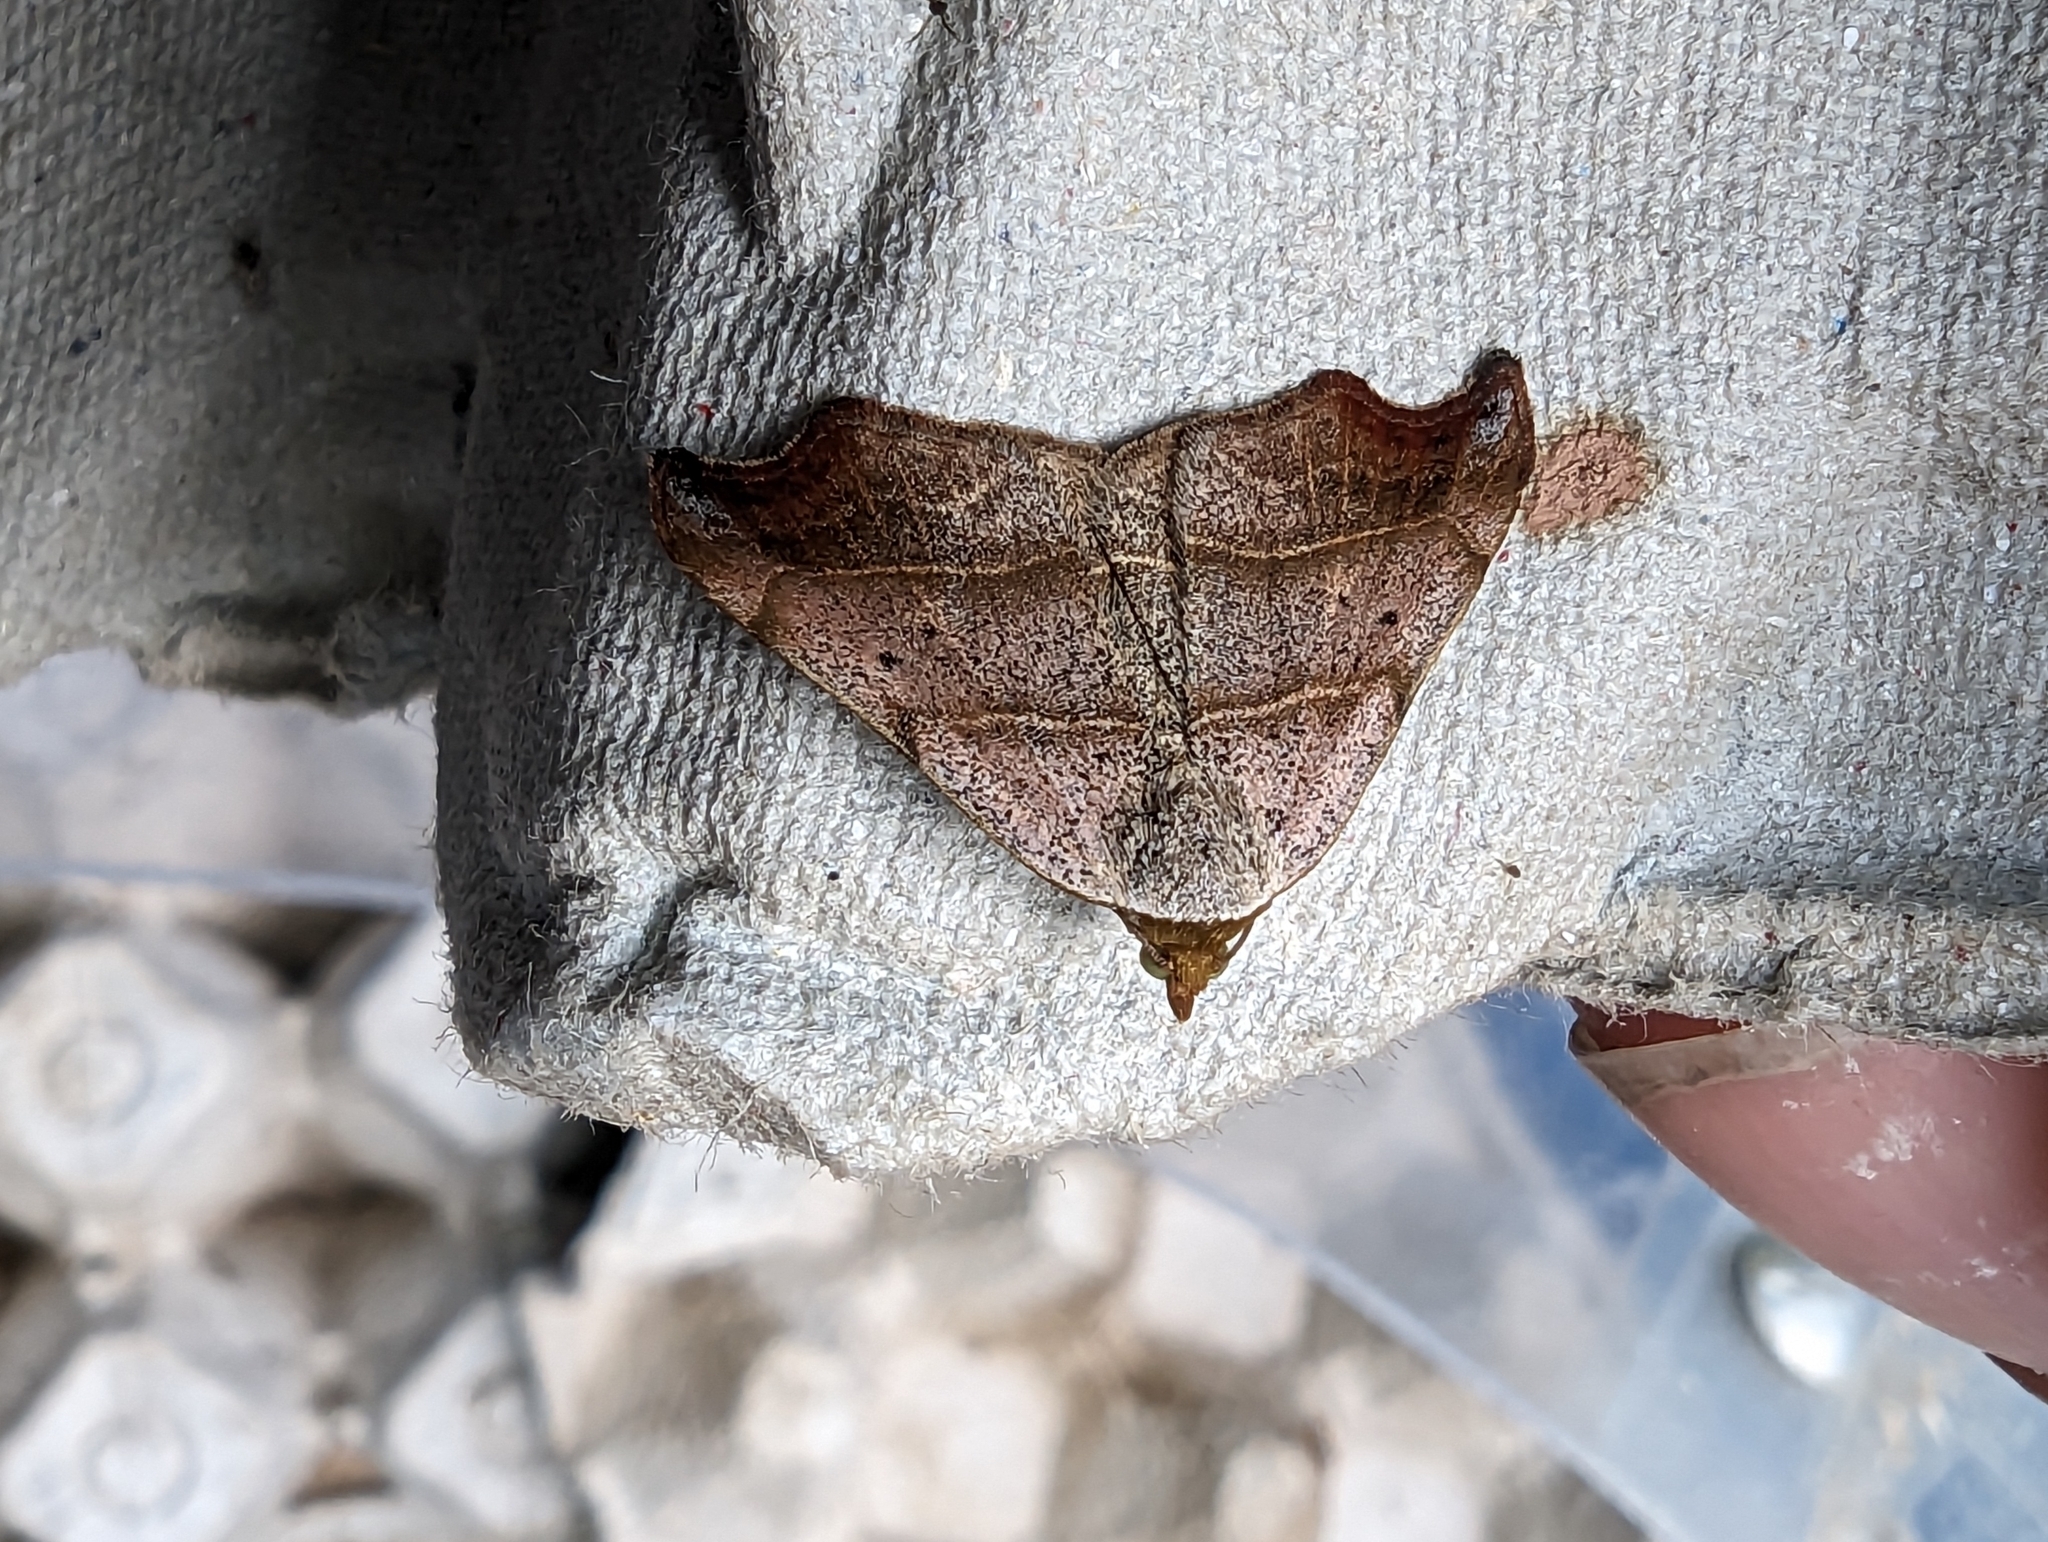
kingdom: Animalia
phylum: Arthropoda
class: Insecta
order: Lepidoptera
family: Erebidae
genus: Laspeyria
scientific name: Laspeyria flexula
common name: Beautiful hook-tip
